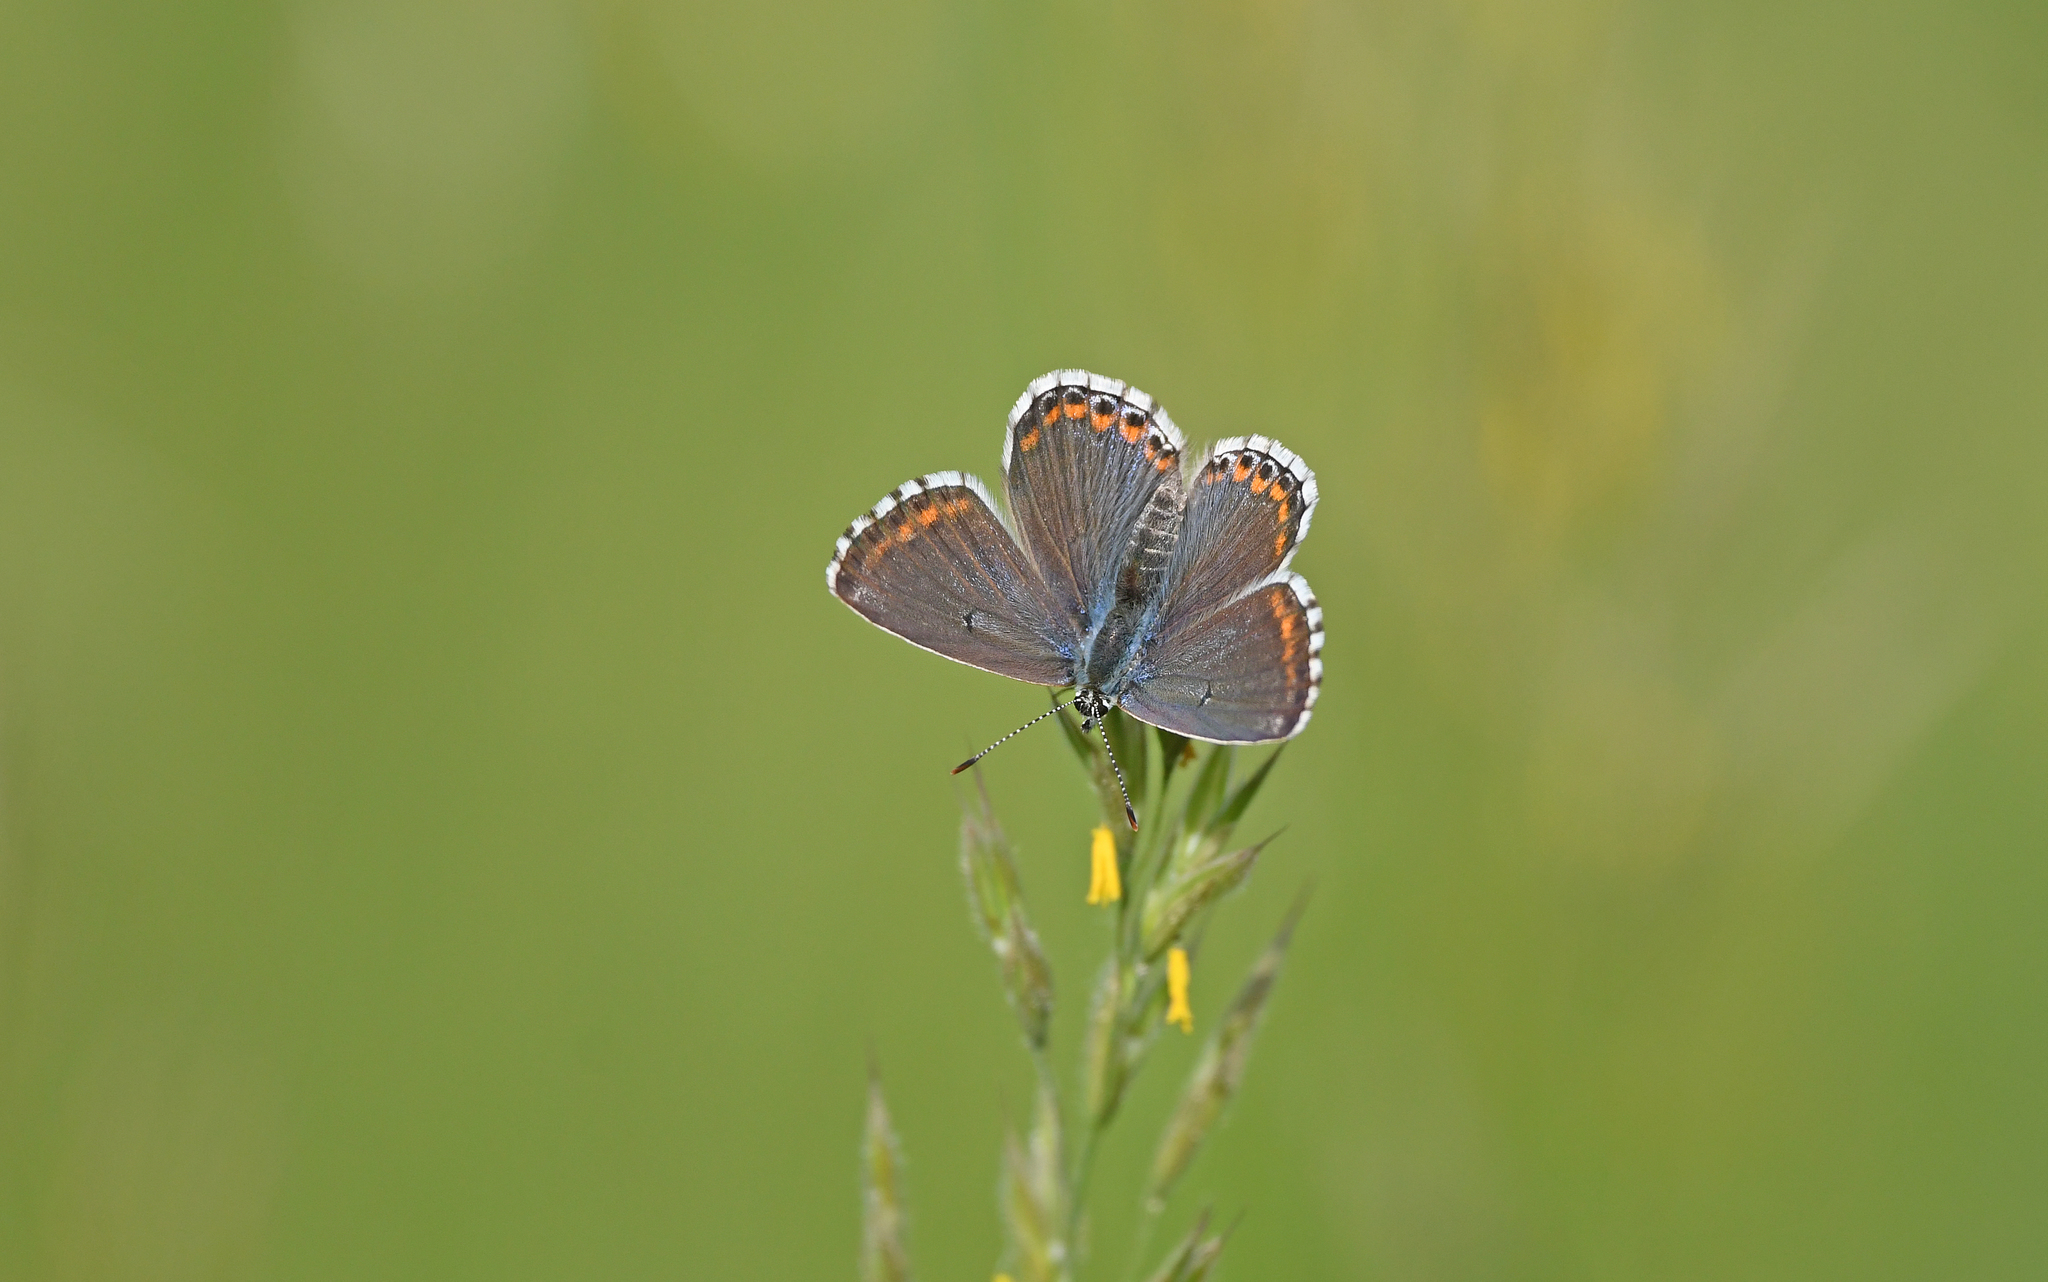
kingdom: Animalia
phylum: Arthropoda
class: Insecta
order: Lepidoptera
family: Lycaenidae
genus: Lysandra
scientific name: Lysandra bellargus
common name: Adonis blue
